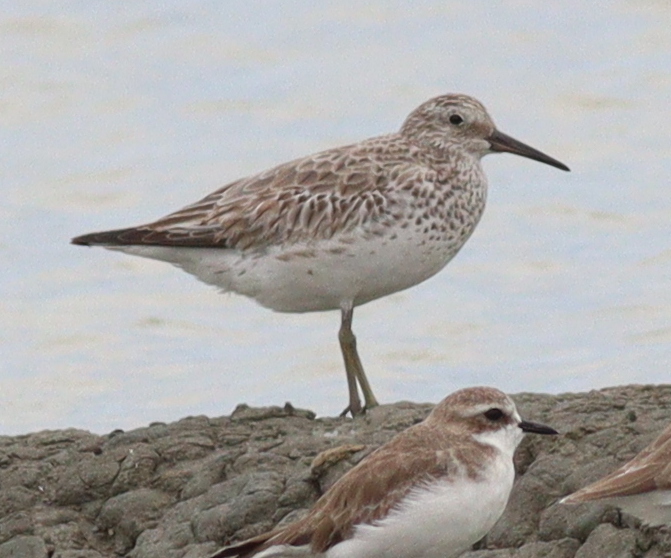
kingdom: Animalia
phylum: Chordata
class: Aves
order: Charadriiformes
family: Scolopacidae
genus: Calidris
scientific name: Calidris tenuirostris
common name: Great knot
